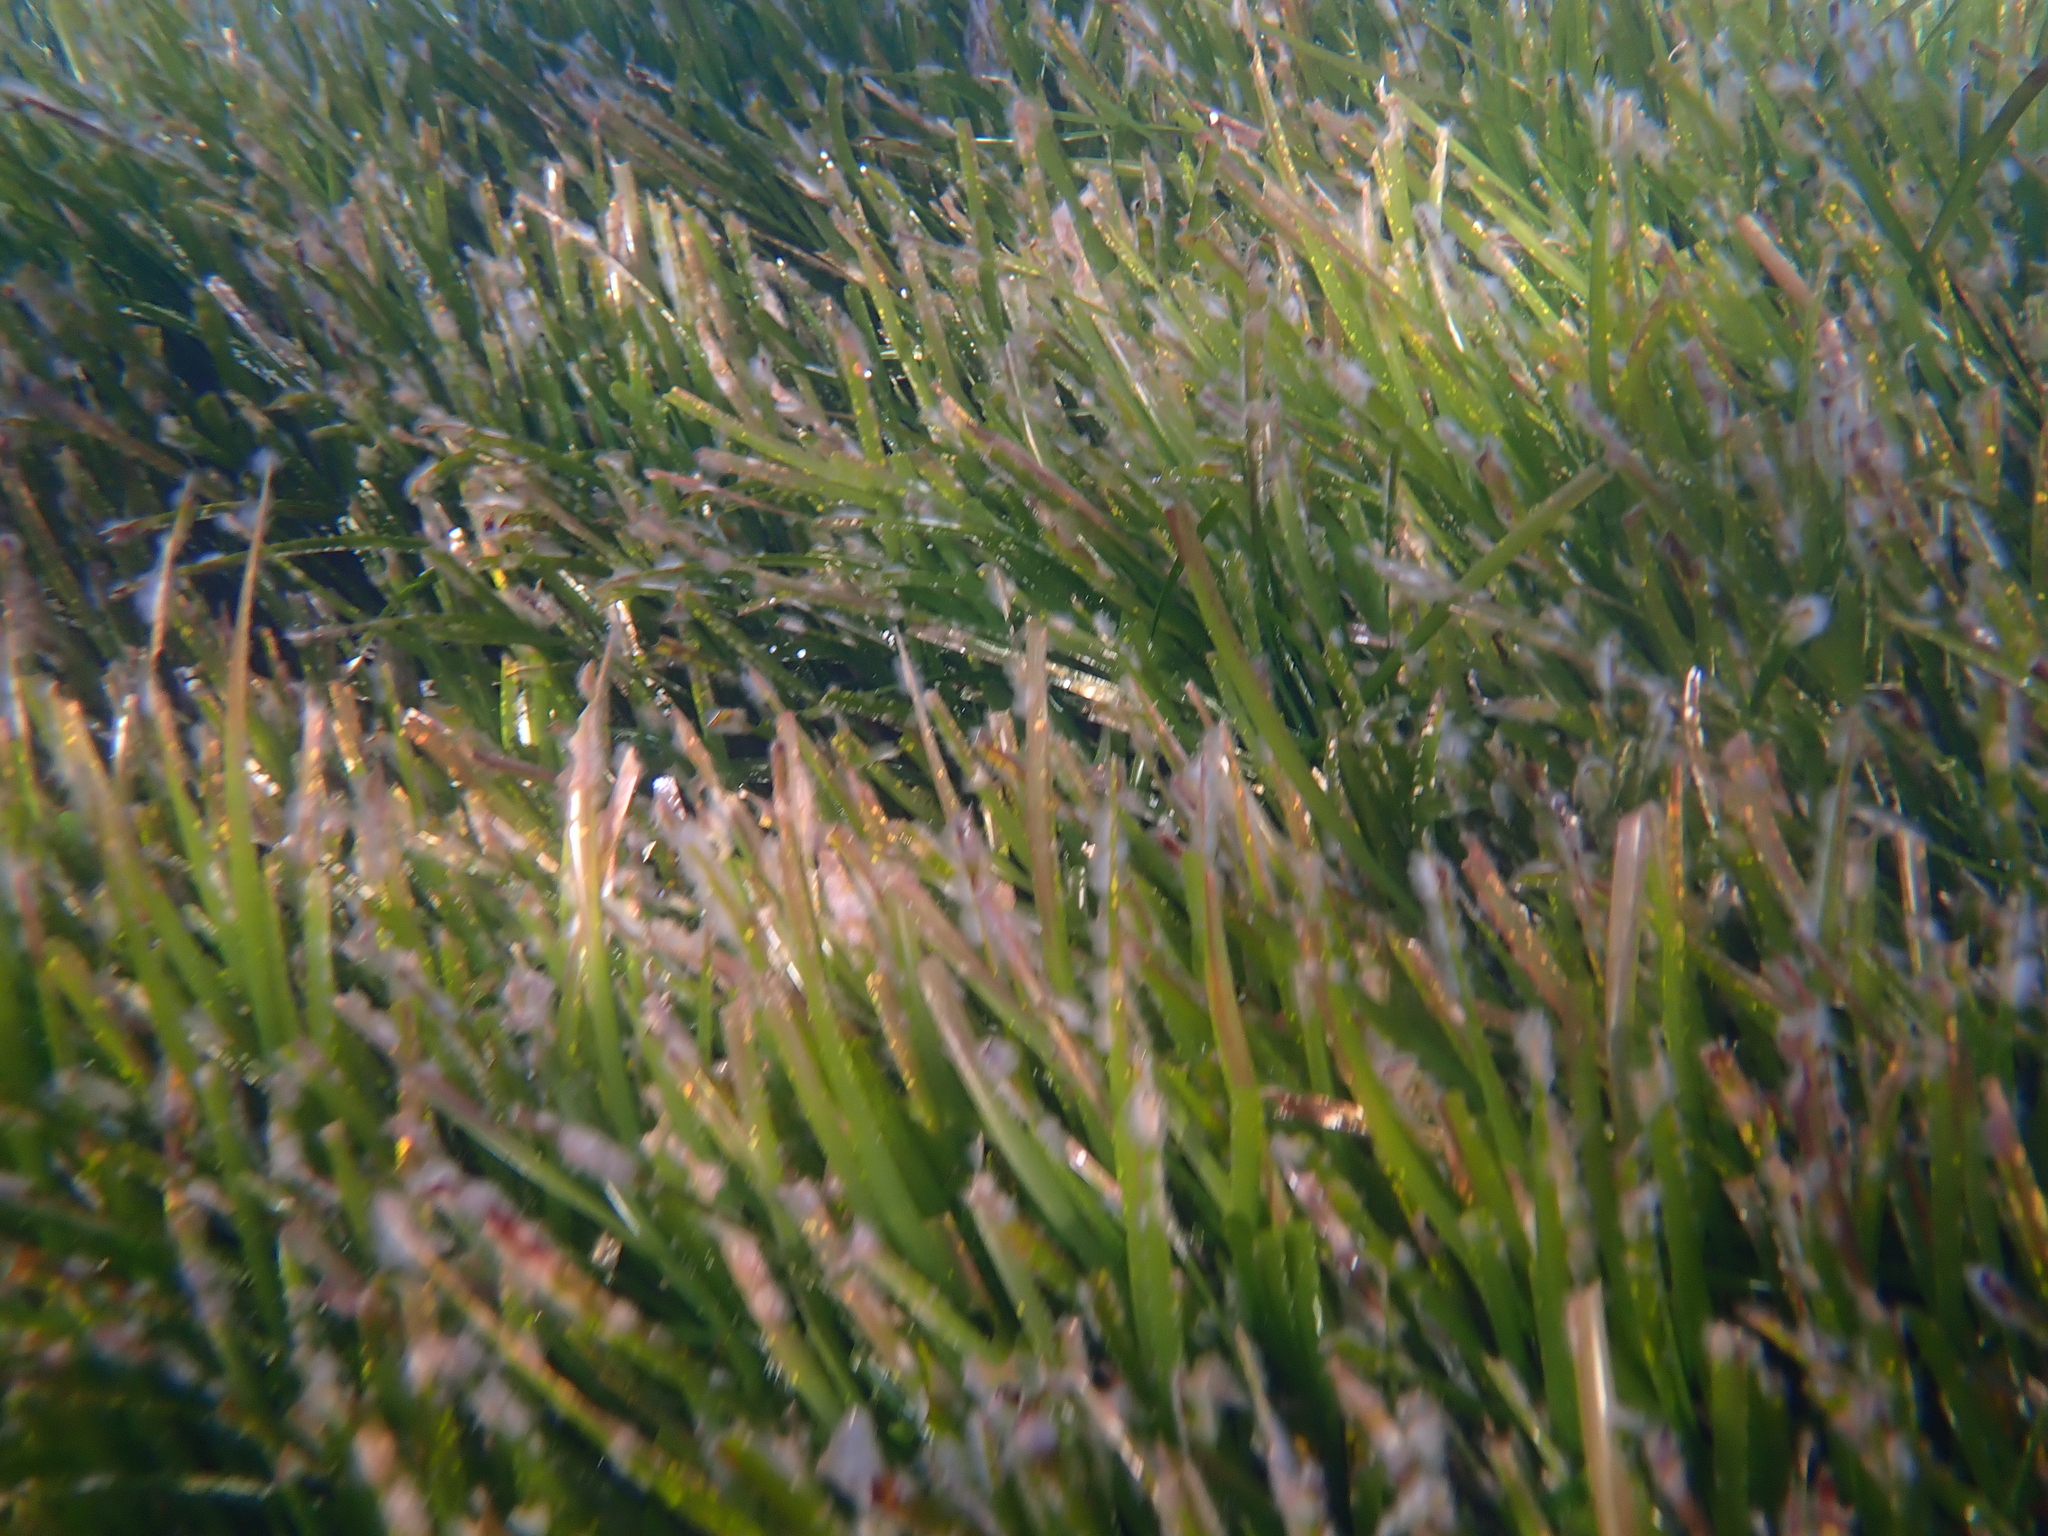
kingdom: Plantae
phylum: Tracheophyta
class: Liliopsida
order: Alismatales
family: Posidoniaceae
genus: Posidonia
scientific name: Posidonia oceanica
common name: Mediterranean tapeweed
